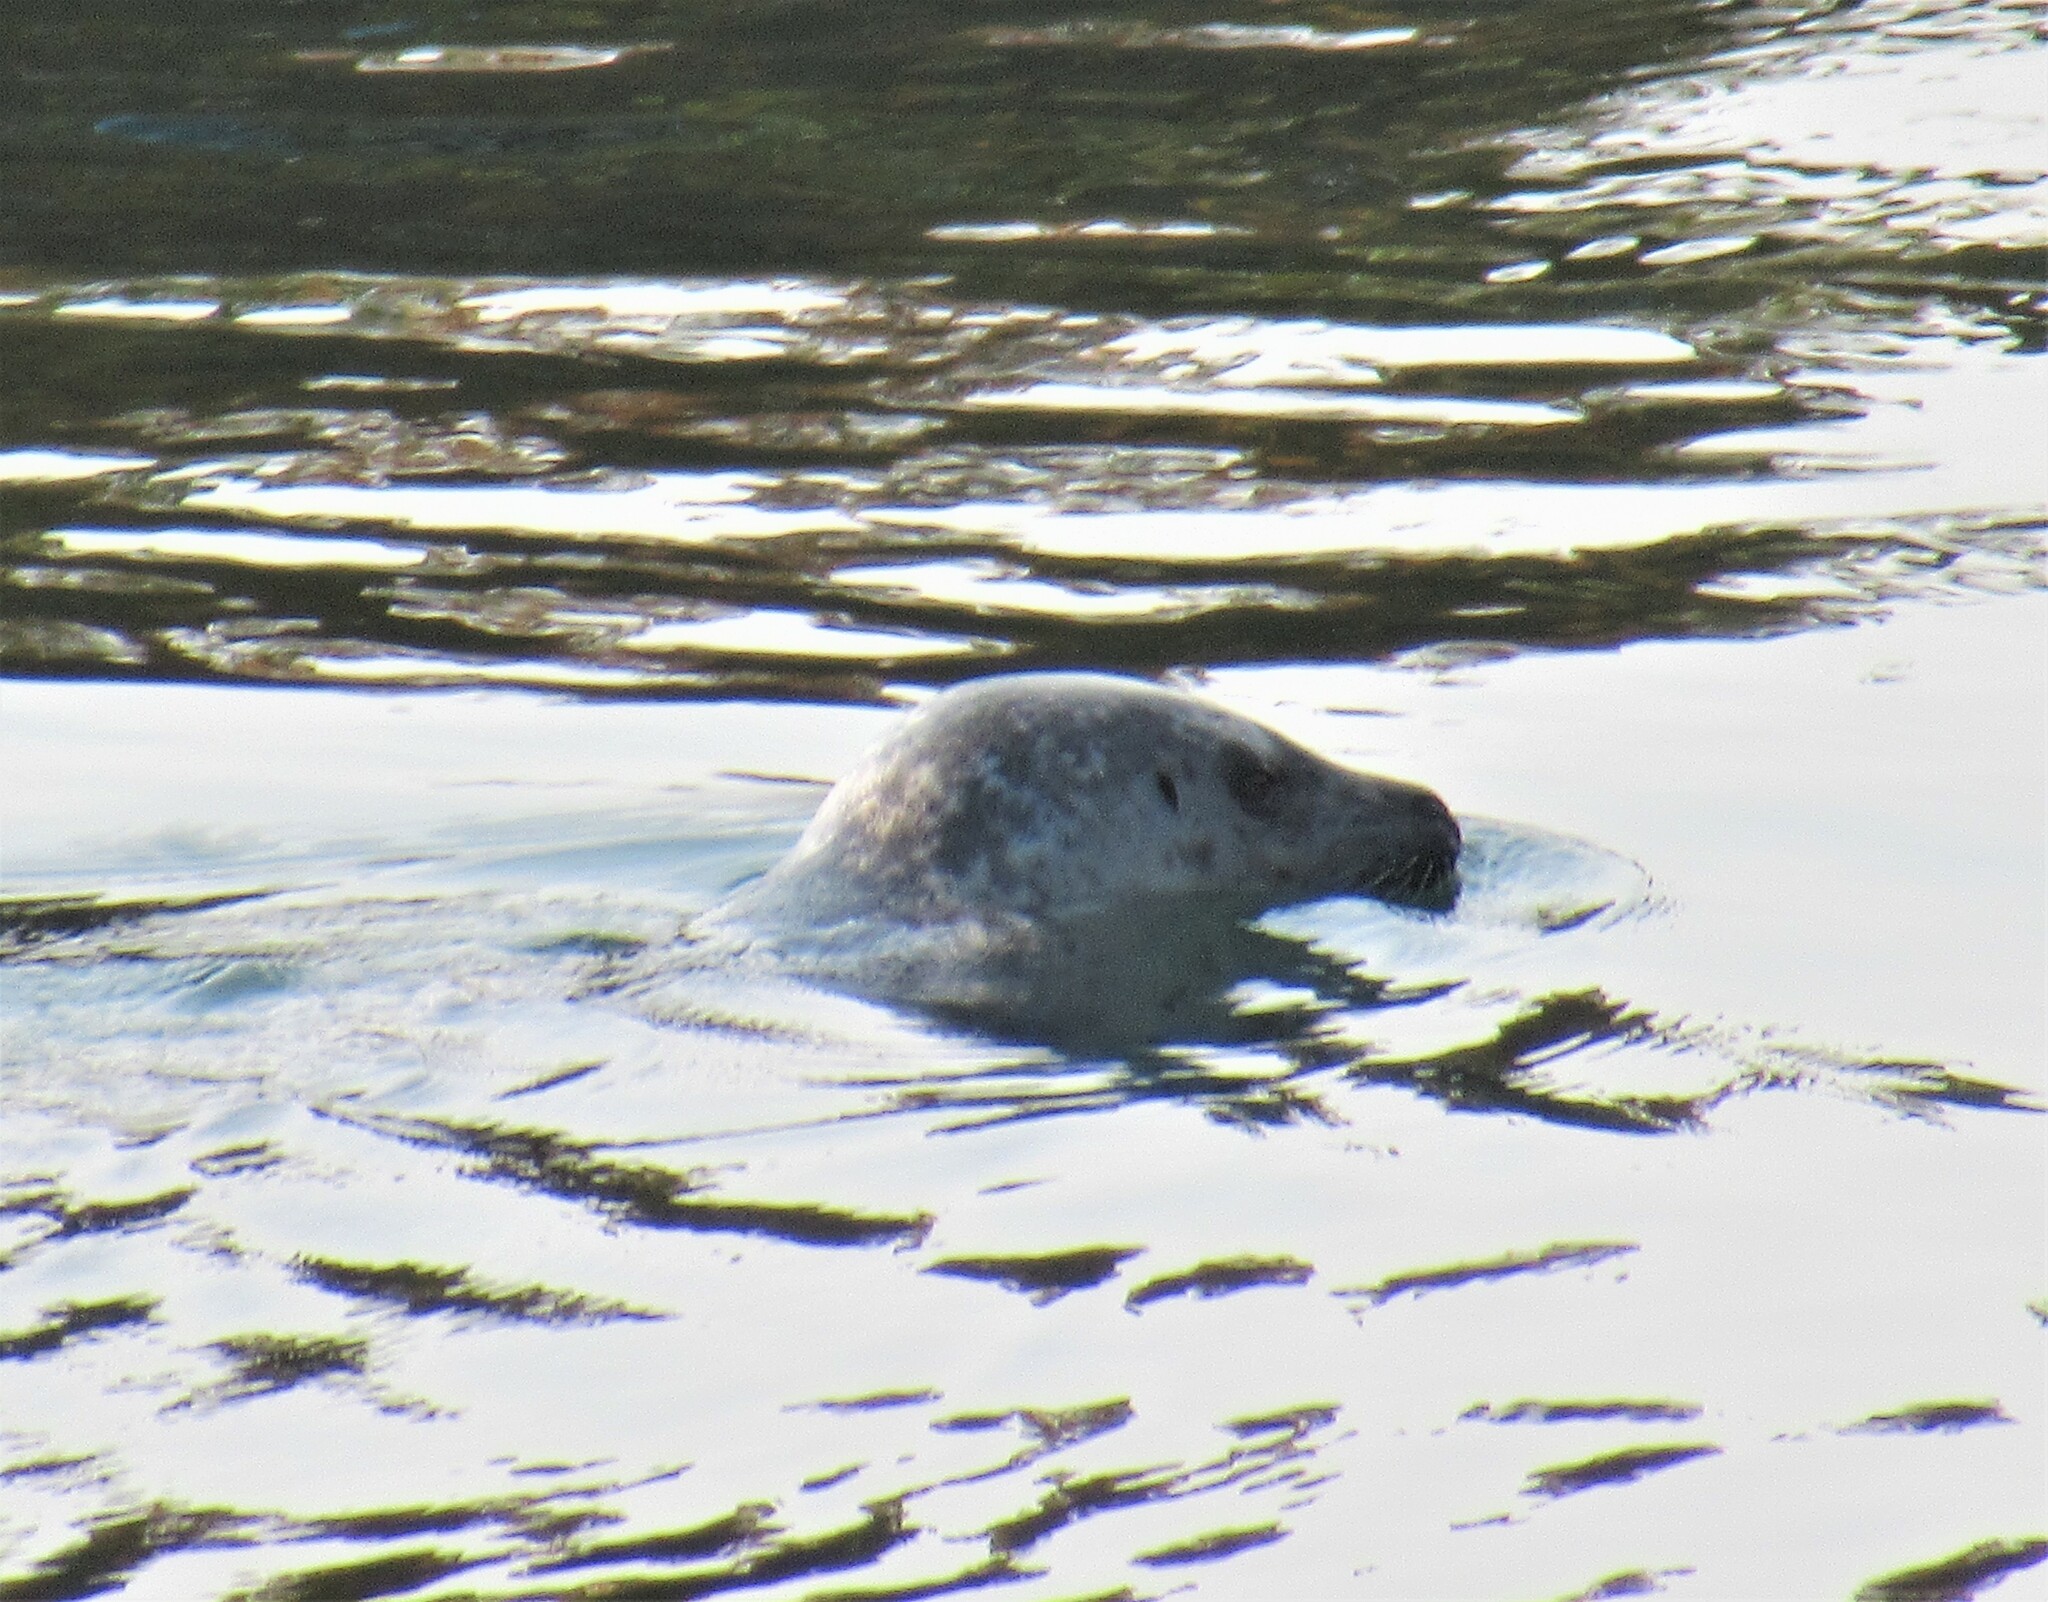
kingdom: Animalia
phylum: Chordata
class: Mammalia
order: Carnivora
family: Phocidae
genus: Phoca
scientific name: Phoca vitulina
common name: Harbor seal
